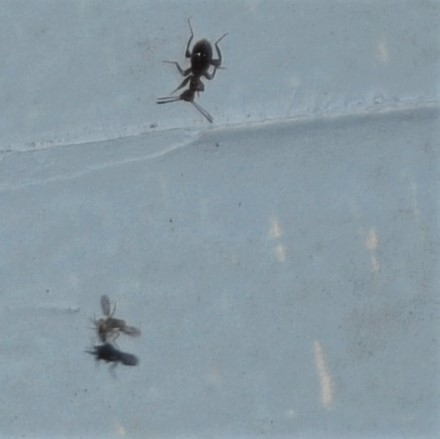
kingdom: Animalia
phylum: Arthropoda
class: Insecta
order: Coleoptera
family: Anthicidae
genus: Acanthinus
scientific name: Acanthinus
